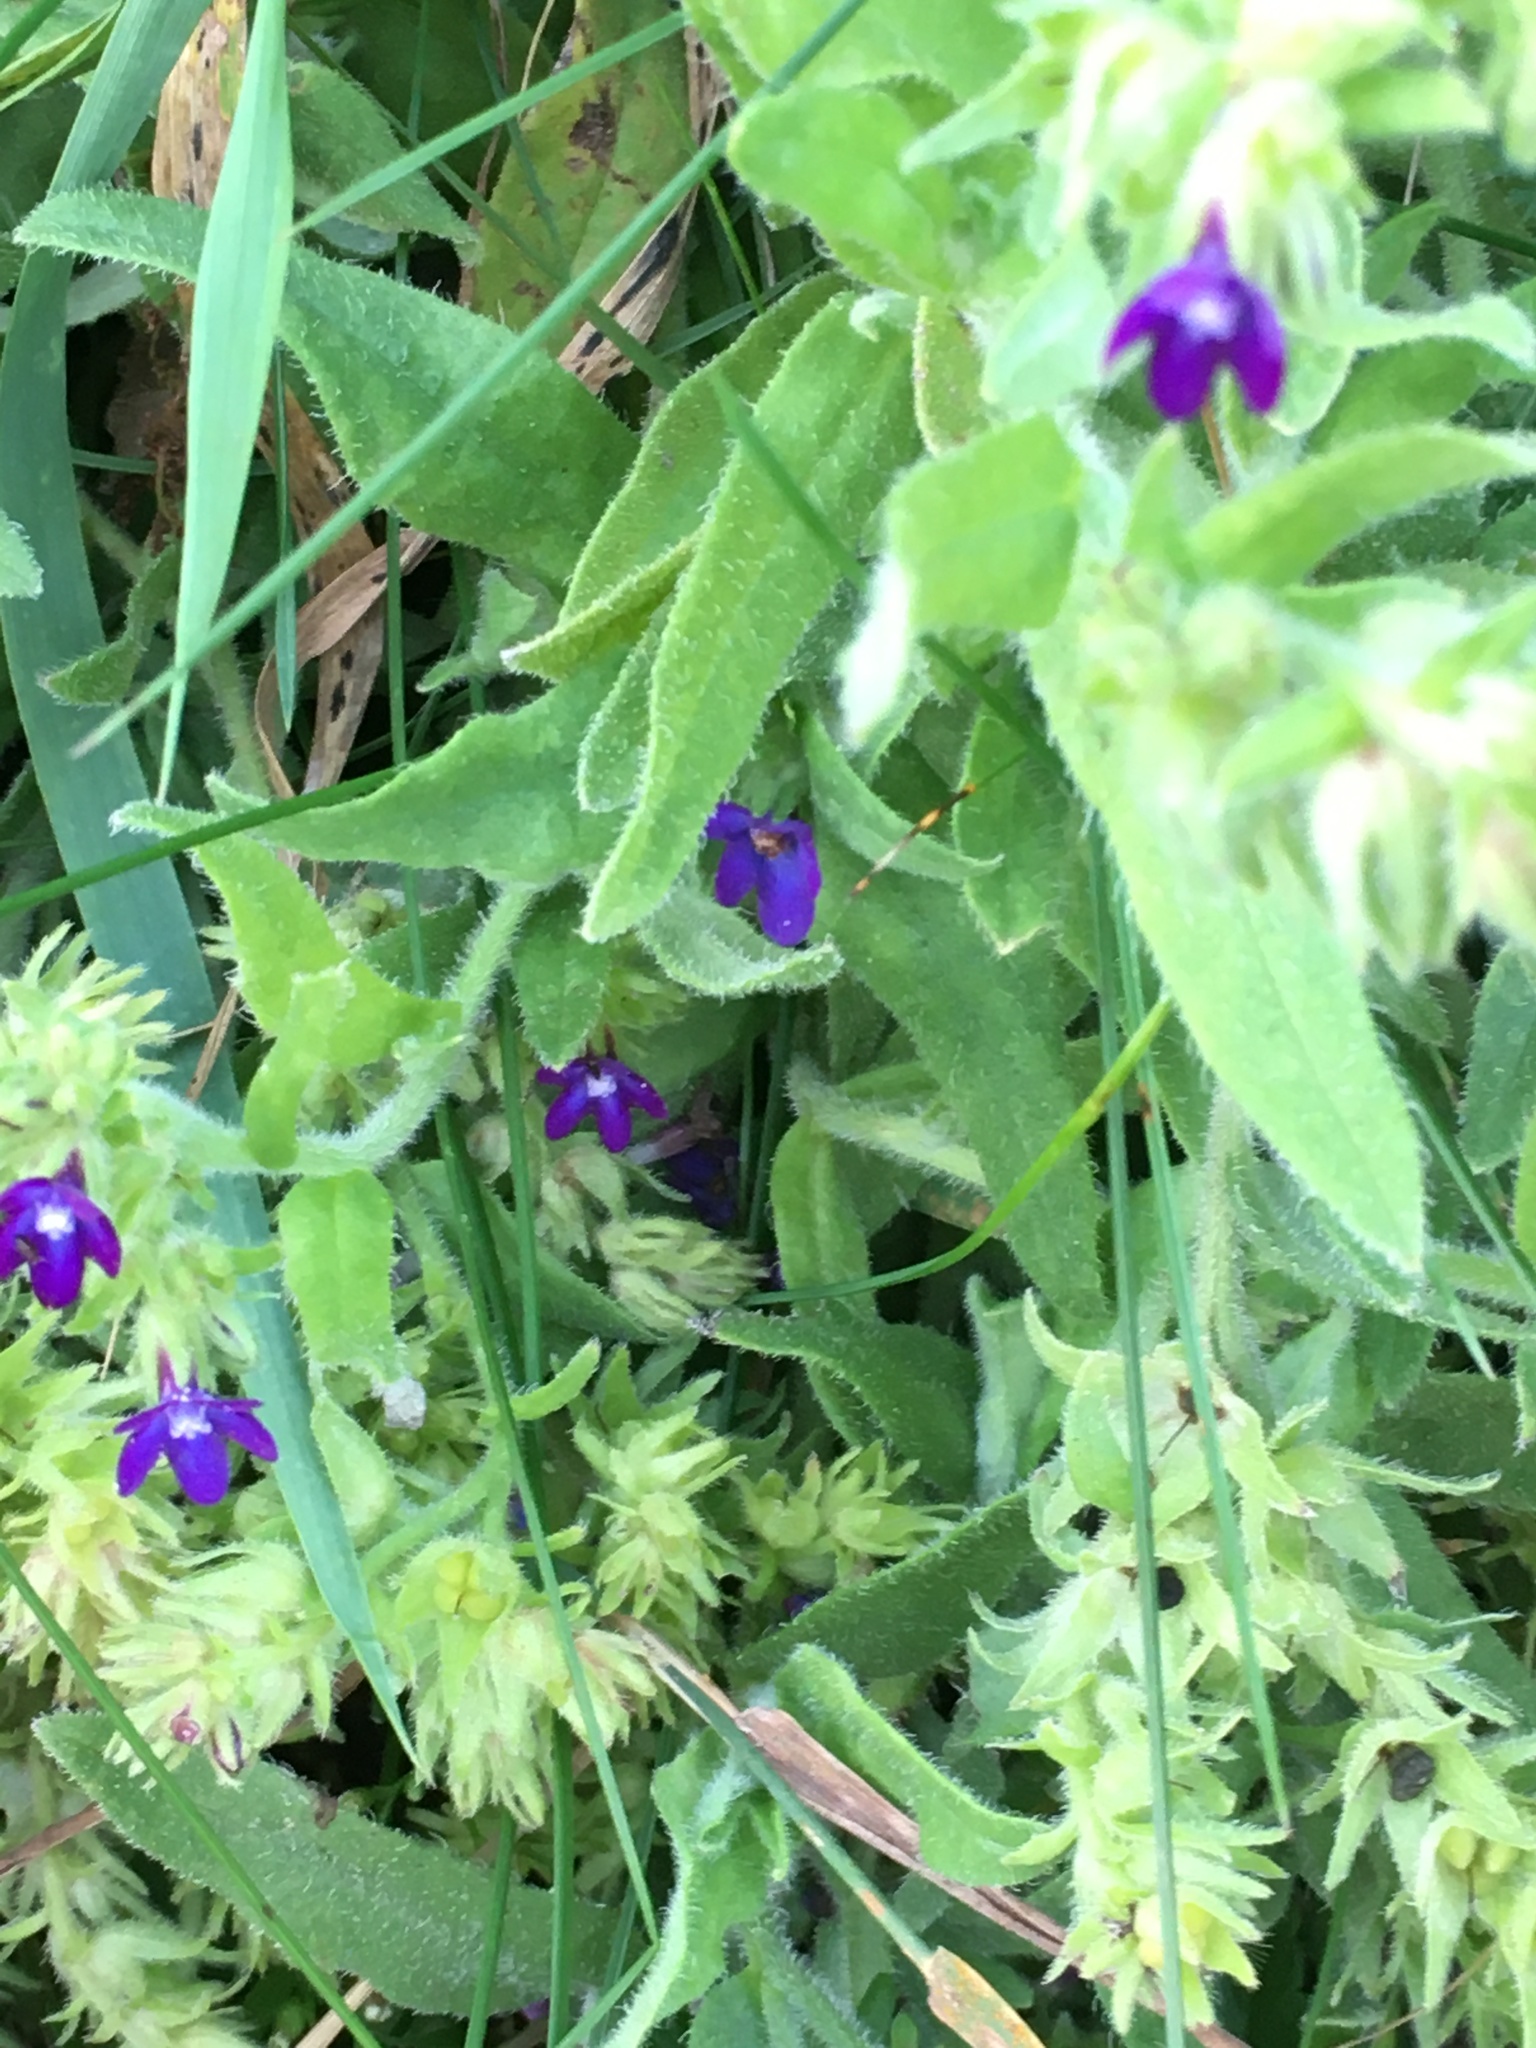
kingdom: Plantae
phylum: Tracheophyta
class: Magnoliopsida
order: Boraginales
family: Boraginaceae
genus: Anchusa
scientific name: Anchusa officinalis
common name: Alkanet
